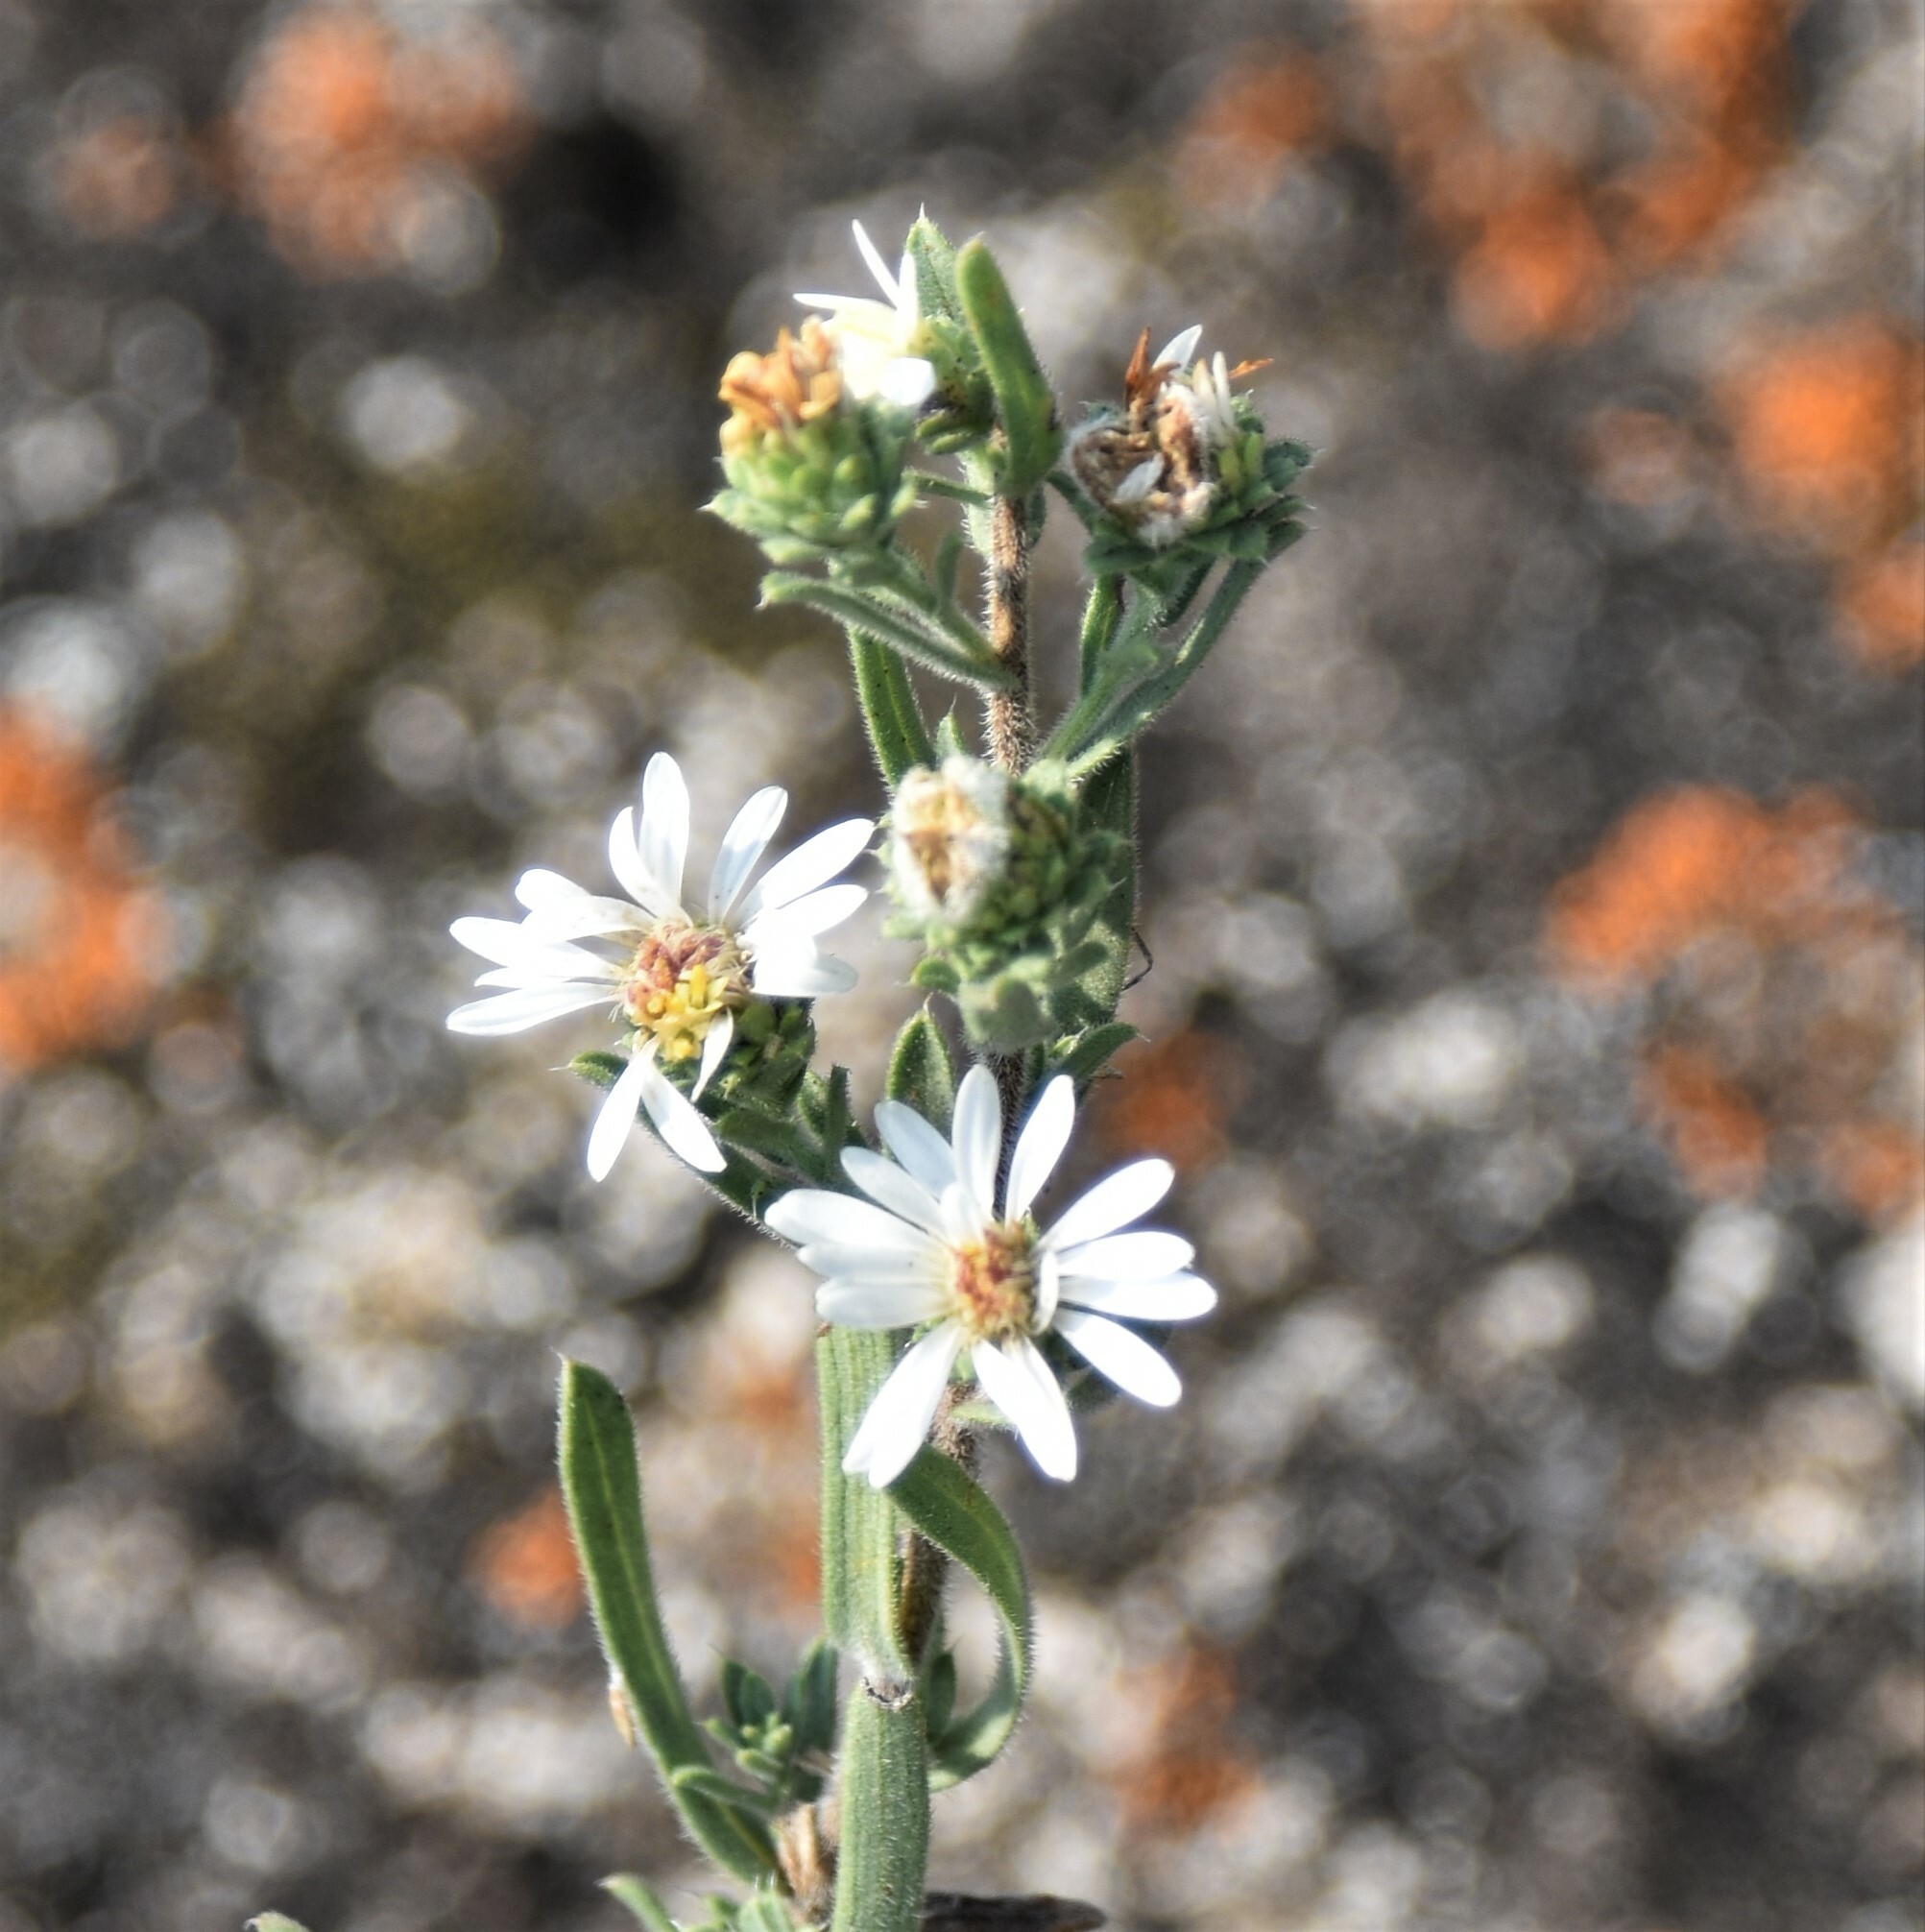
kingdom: Plantae
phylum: Tracheophyta
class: Magnoliopsida
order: Asterales
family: Asteraceae
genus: Symphyotrichum
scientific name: Symphyotrichum ericoides
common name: Heath aster
